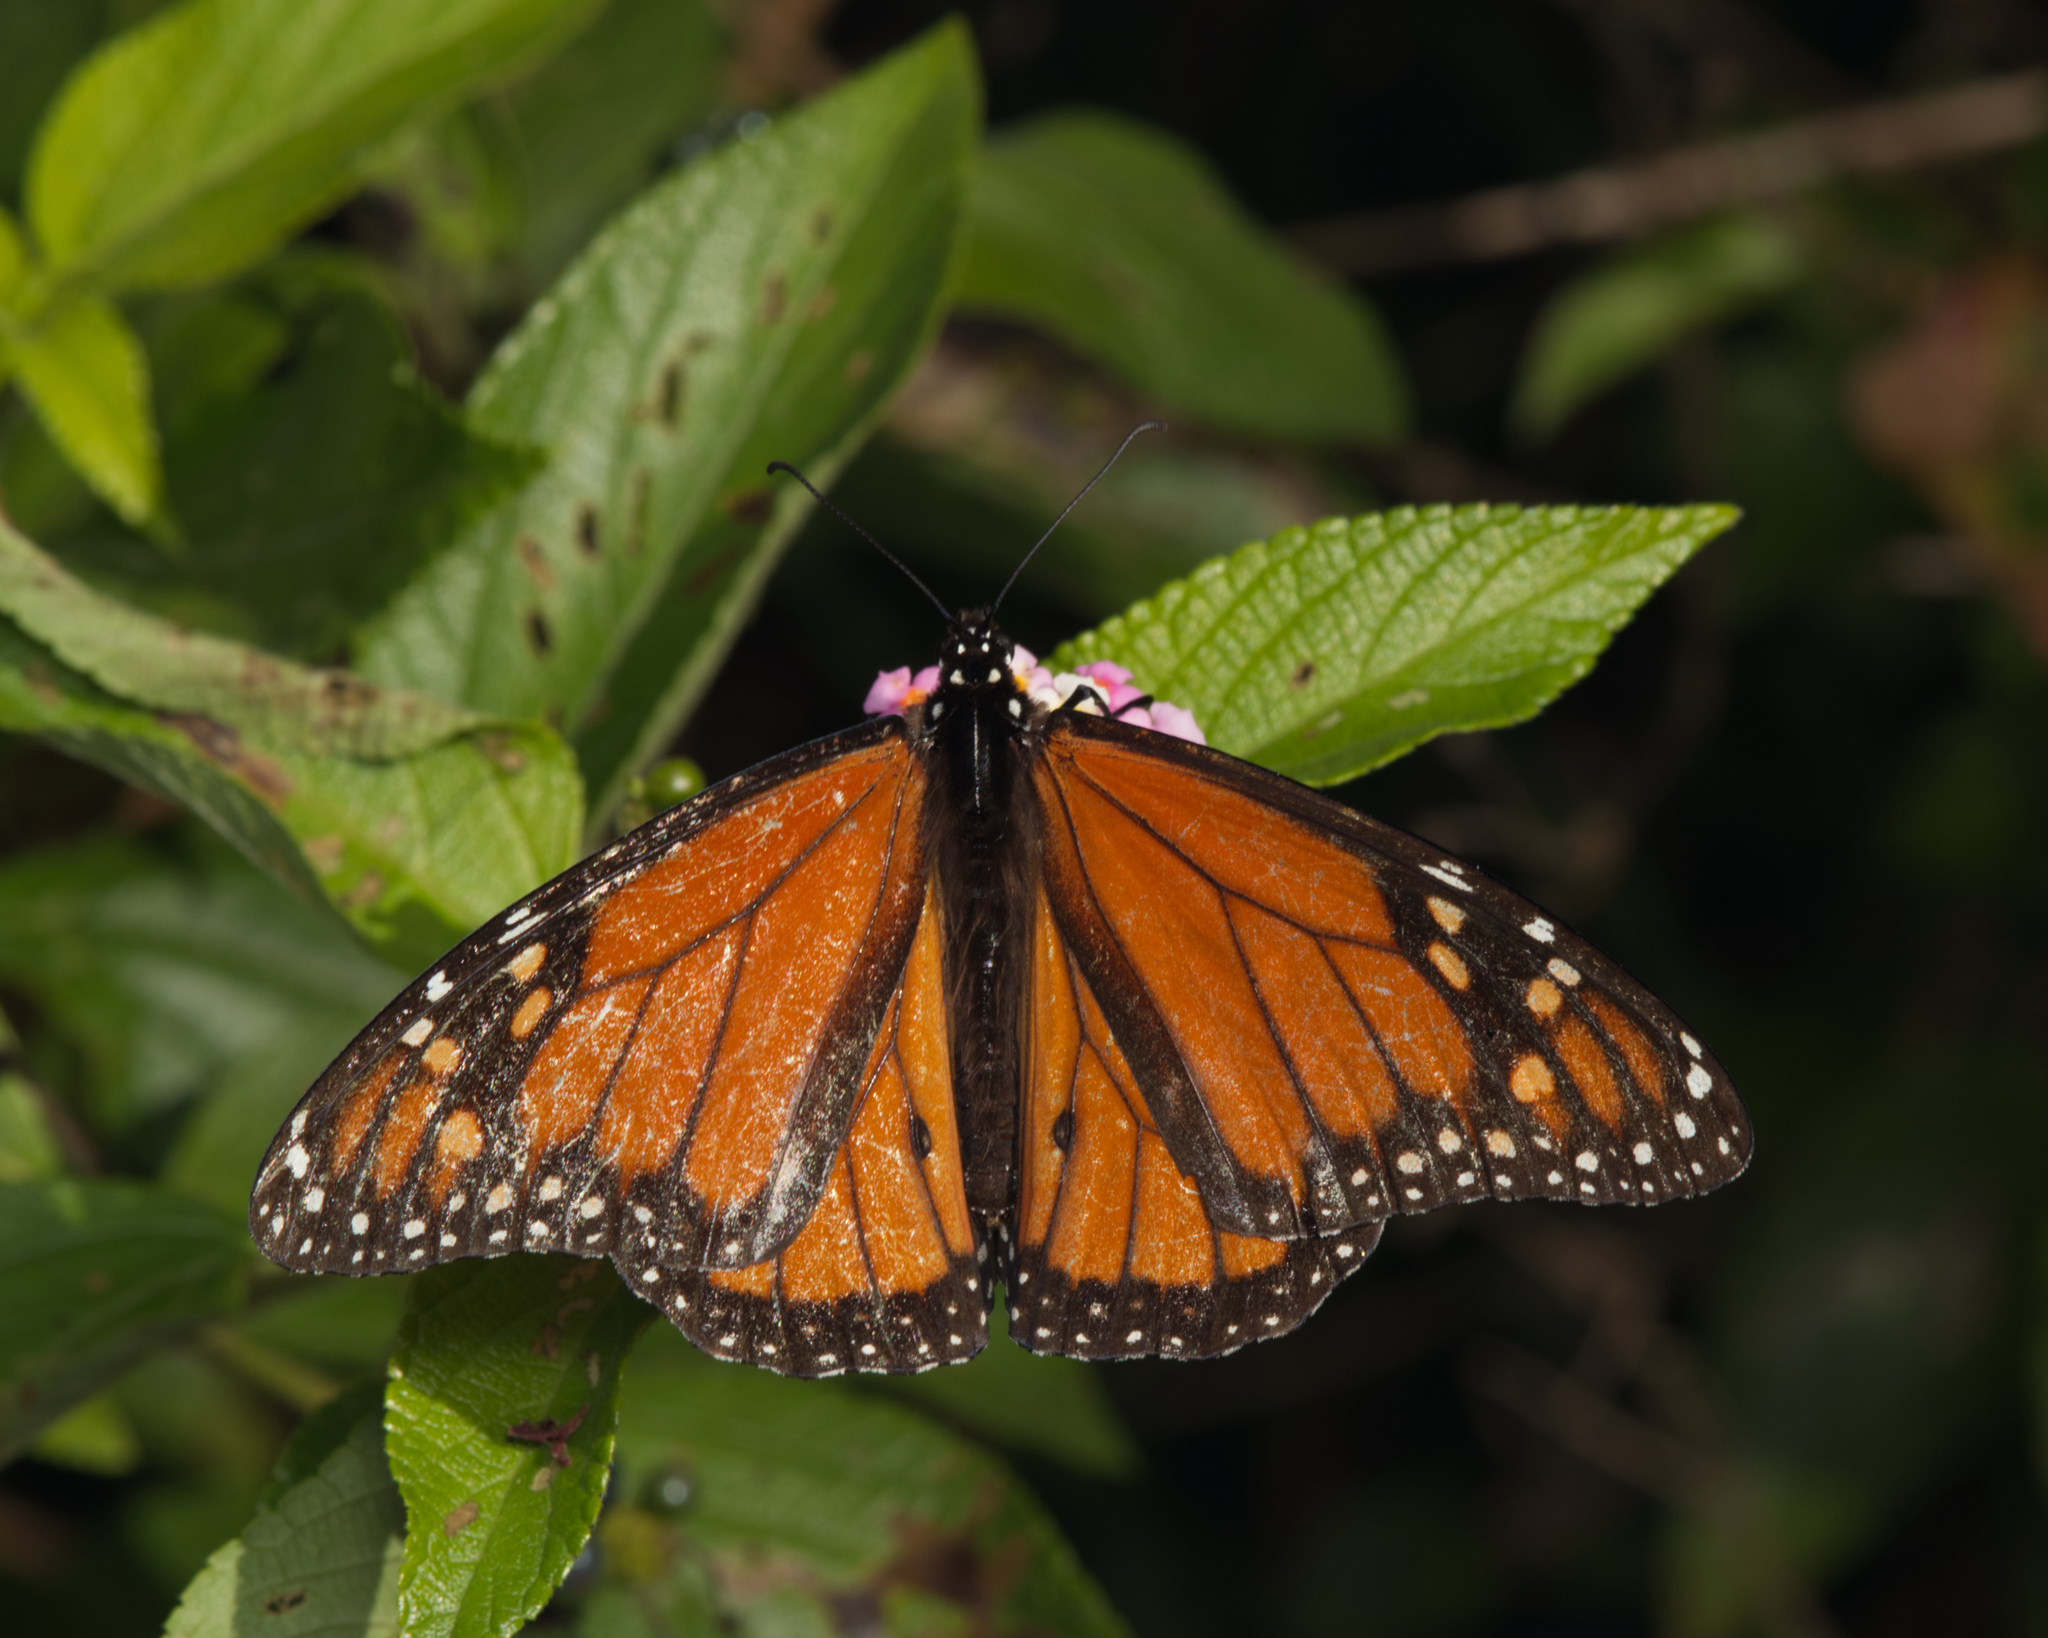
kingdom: Animalia
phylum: Arthropoda
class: Insecta
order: Lepidoptera
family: Nymphalidae
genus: Danaus
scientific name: Danaus plexippus
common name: Monarch
